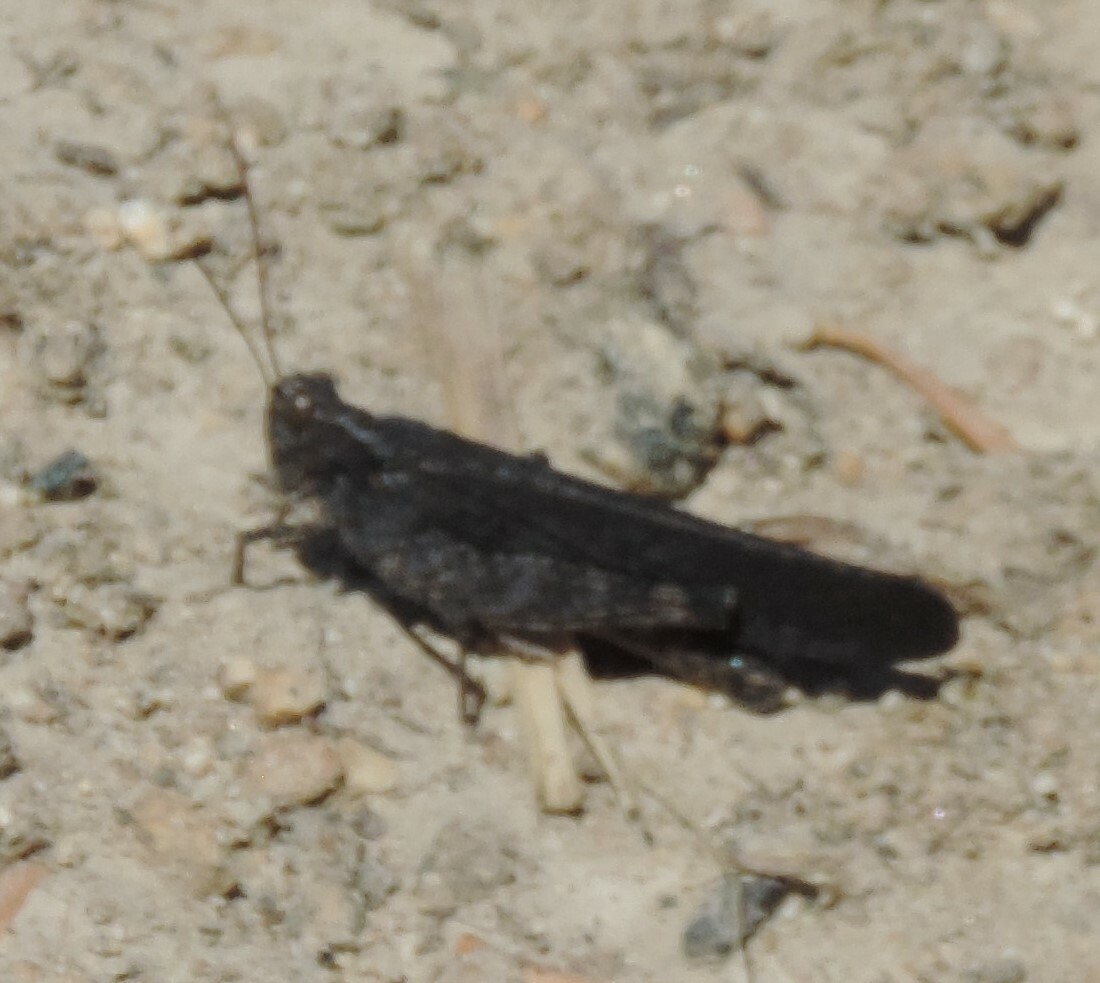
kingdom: Animalia
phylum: Arthropoda
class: Insecta
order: Orthoptera
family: Acrididae
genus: Trimerotropis
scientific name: Trimerotropis verruculata
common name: Crackling forest grasshopper
